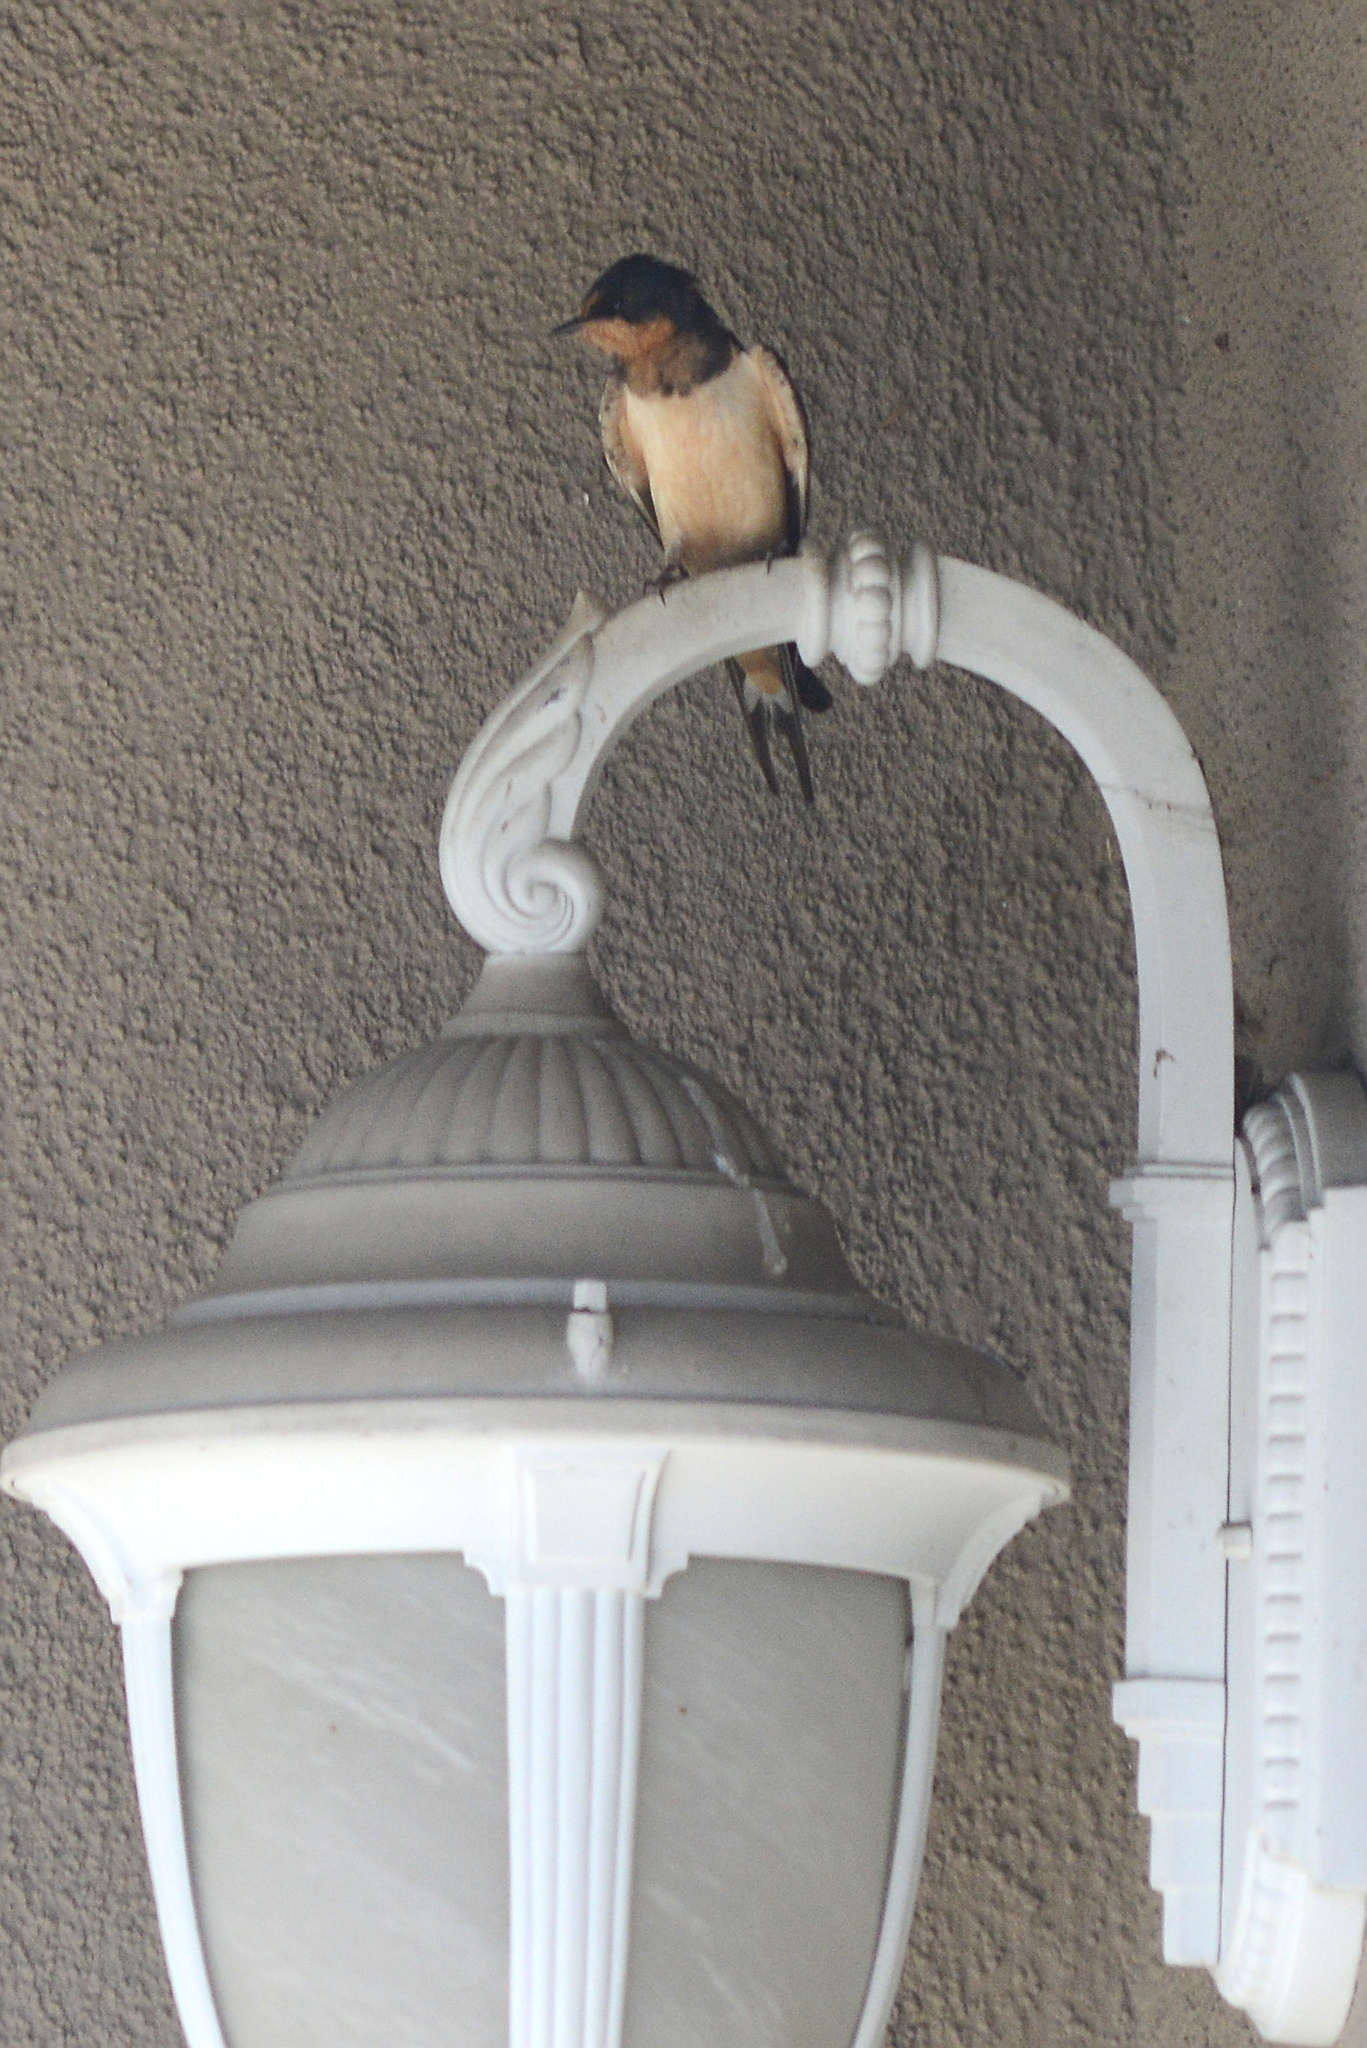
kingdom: Animalia
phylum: Chordata
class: Aves
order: Passeriformes
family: Hirundinidae
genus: Hirundo
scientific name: Hirundo rustica
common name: Barn swallow
